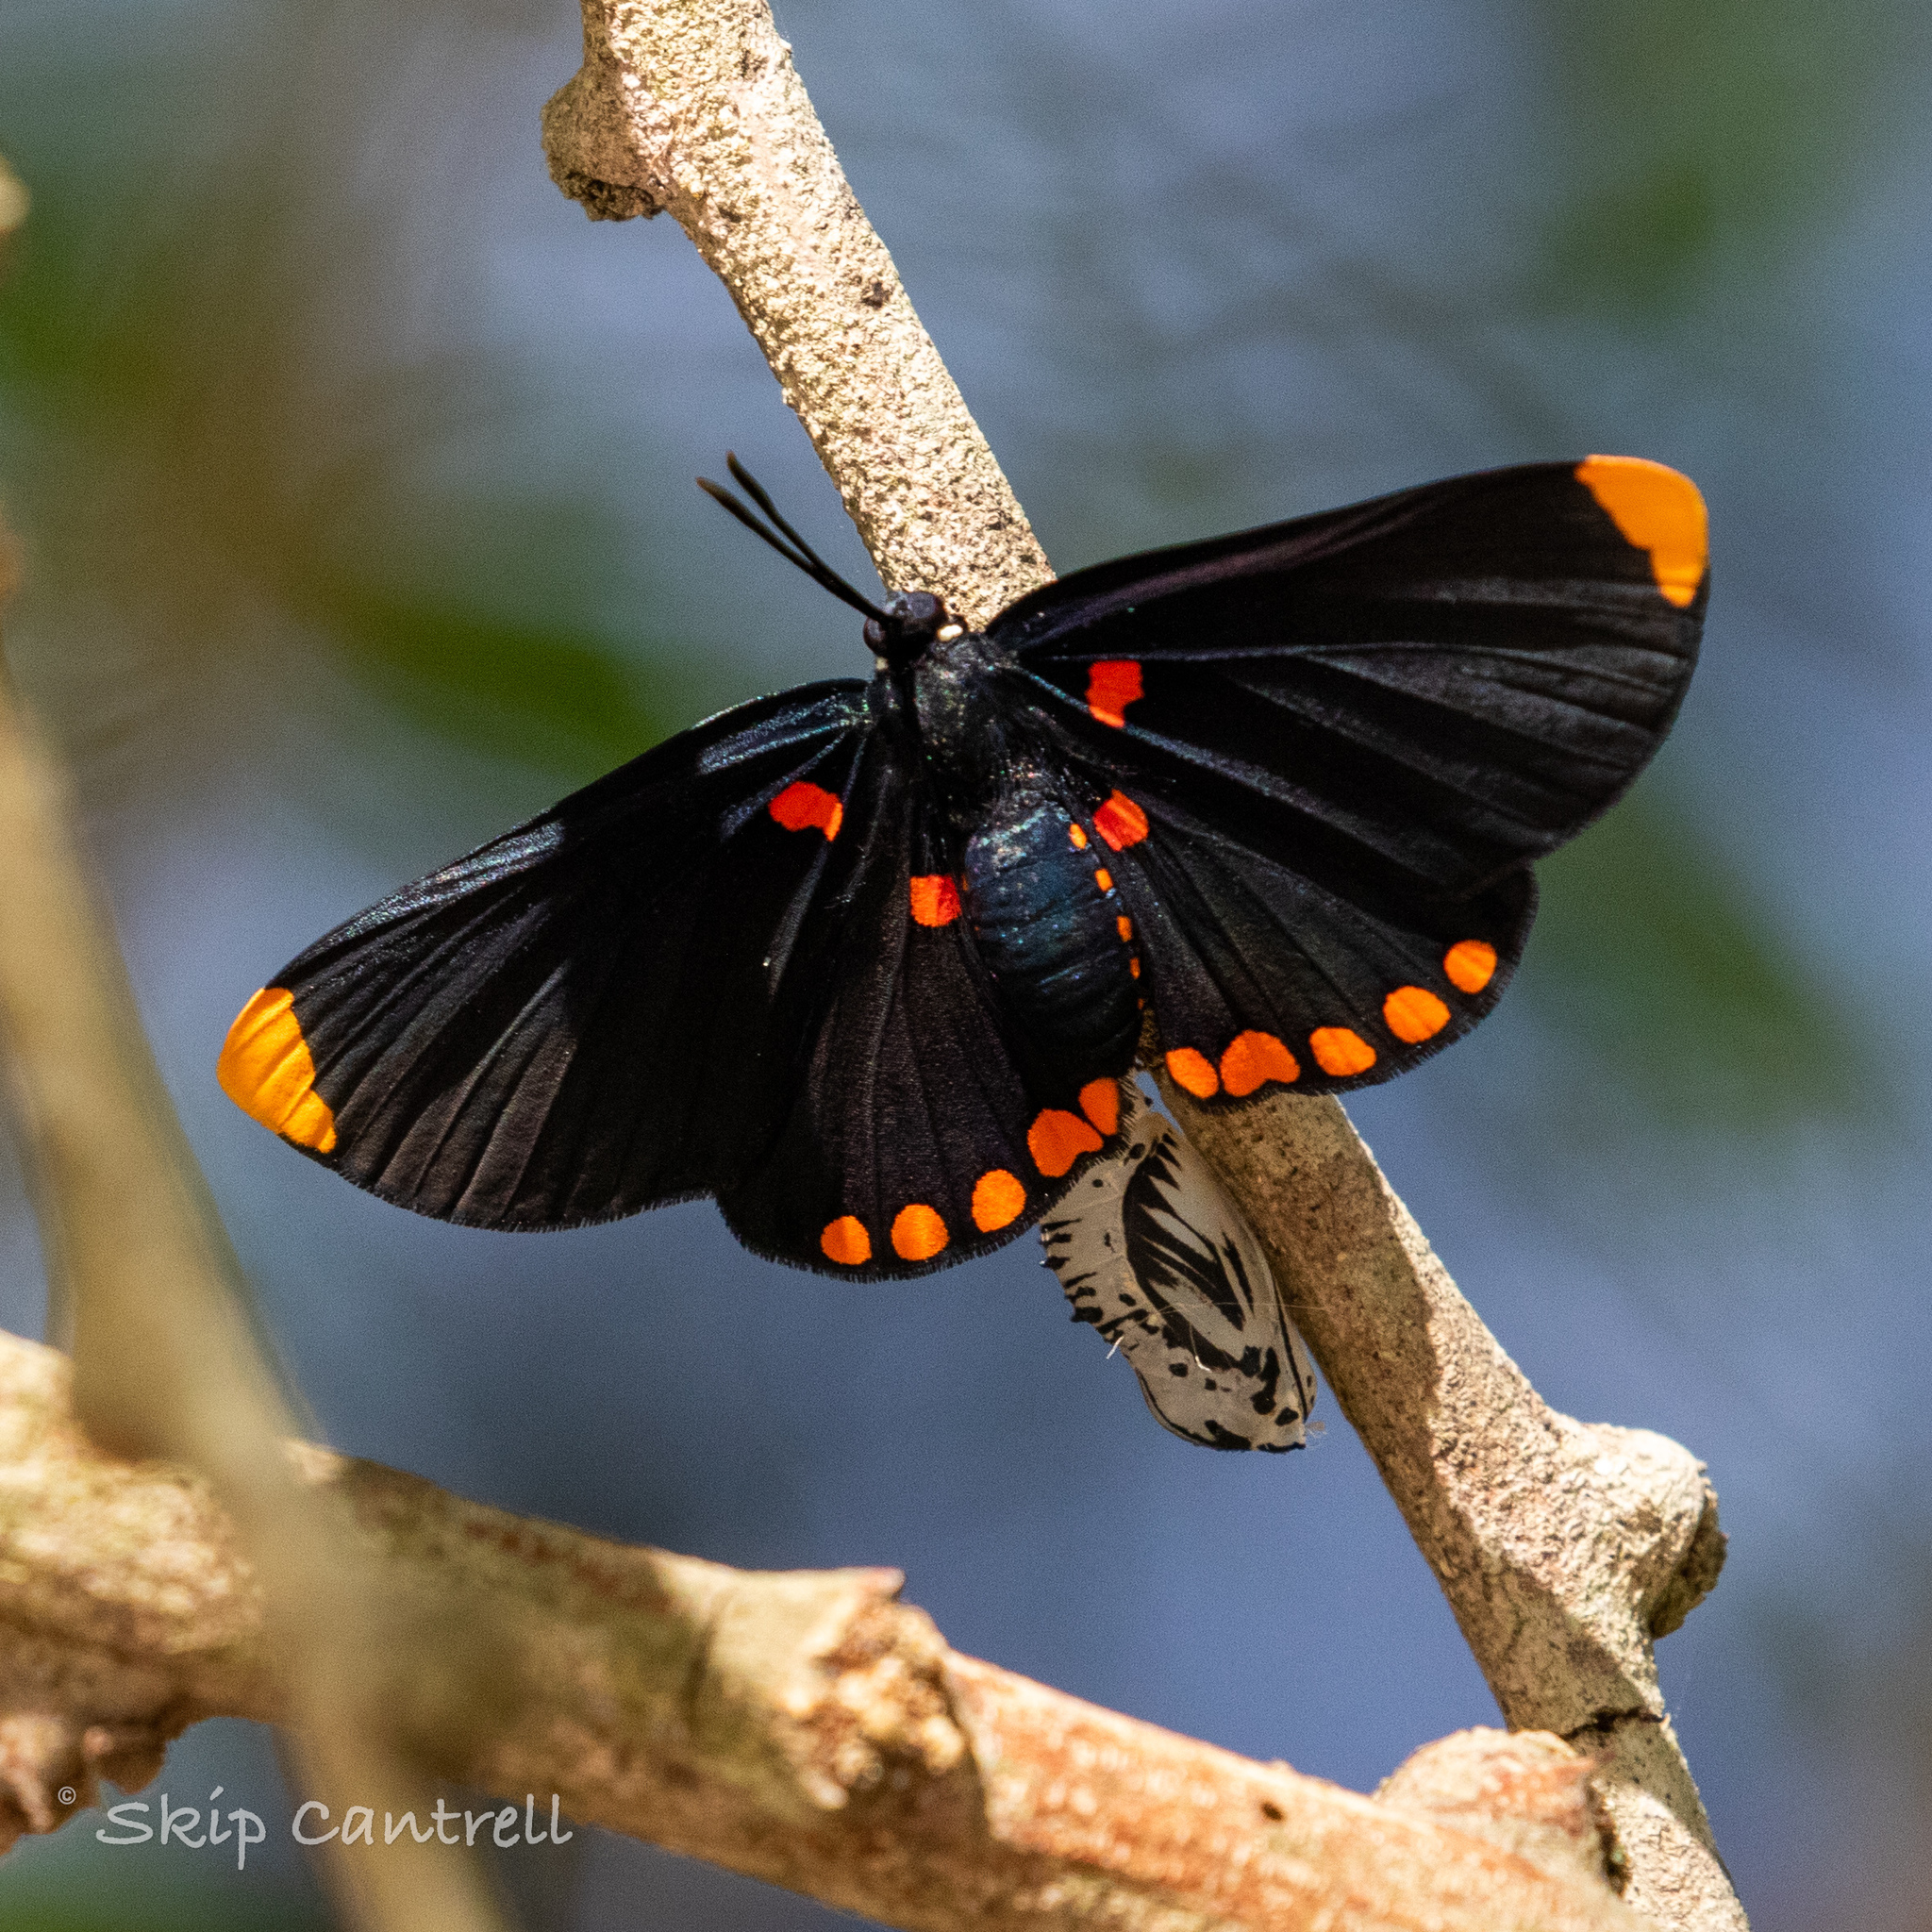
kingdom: Animalia
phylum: Arthropoda
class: Insecta
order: Lepidoptera
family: Lycaenidae
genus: Melanis
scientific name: Melanis pixe
